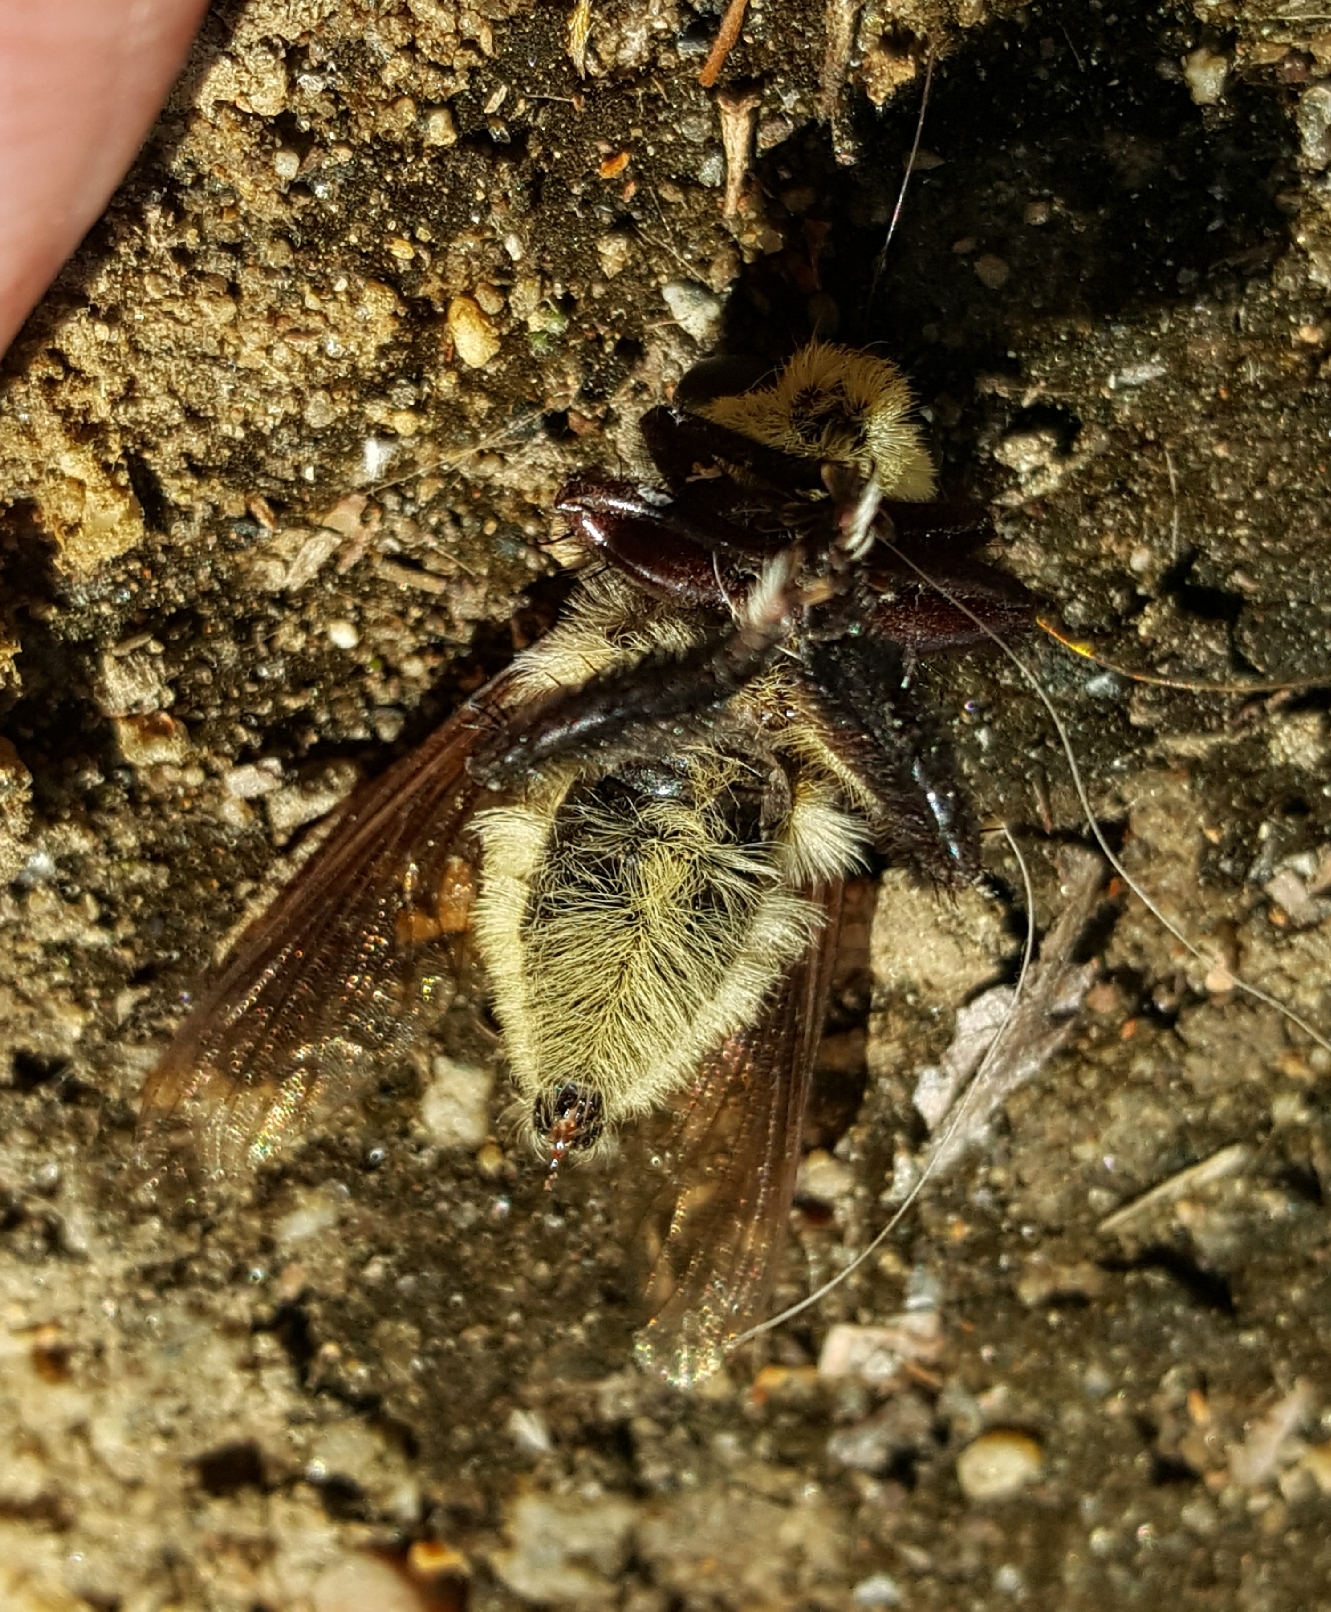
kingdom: Animalia
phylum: Arthropoda
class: Insecta
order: Diptera
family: Asilidae
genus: Mallophora
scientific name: Mallophora fautrix
